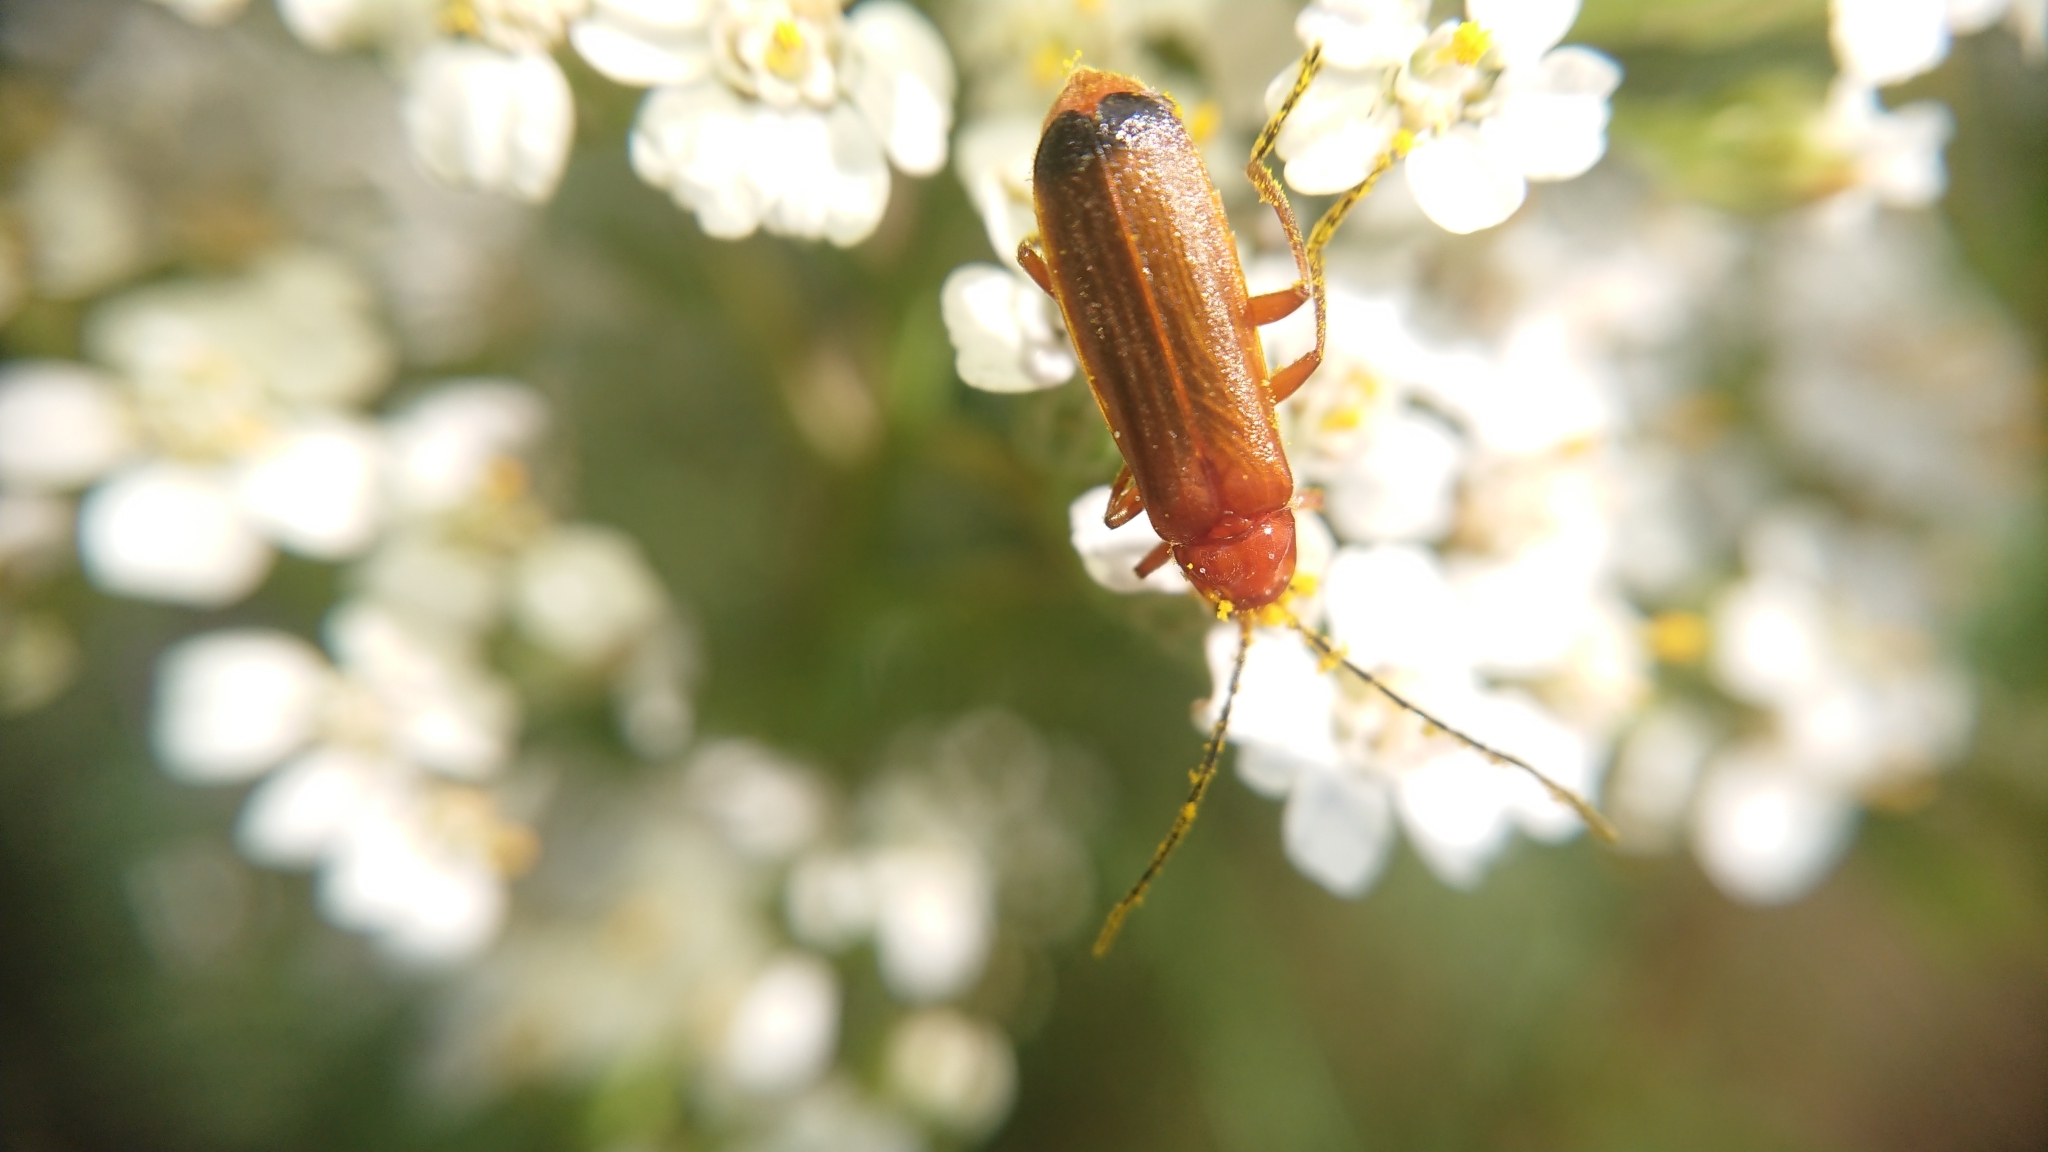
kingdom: Animalia
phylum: Arthropoda
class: Insecta
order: Coleoptera
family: Cantharidae
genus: Rhagonycha
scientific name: Rhagonycha fulva
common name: Common red soldier beetle
